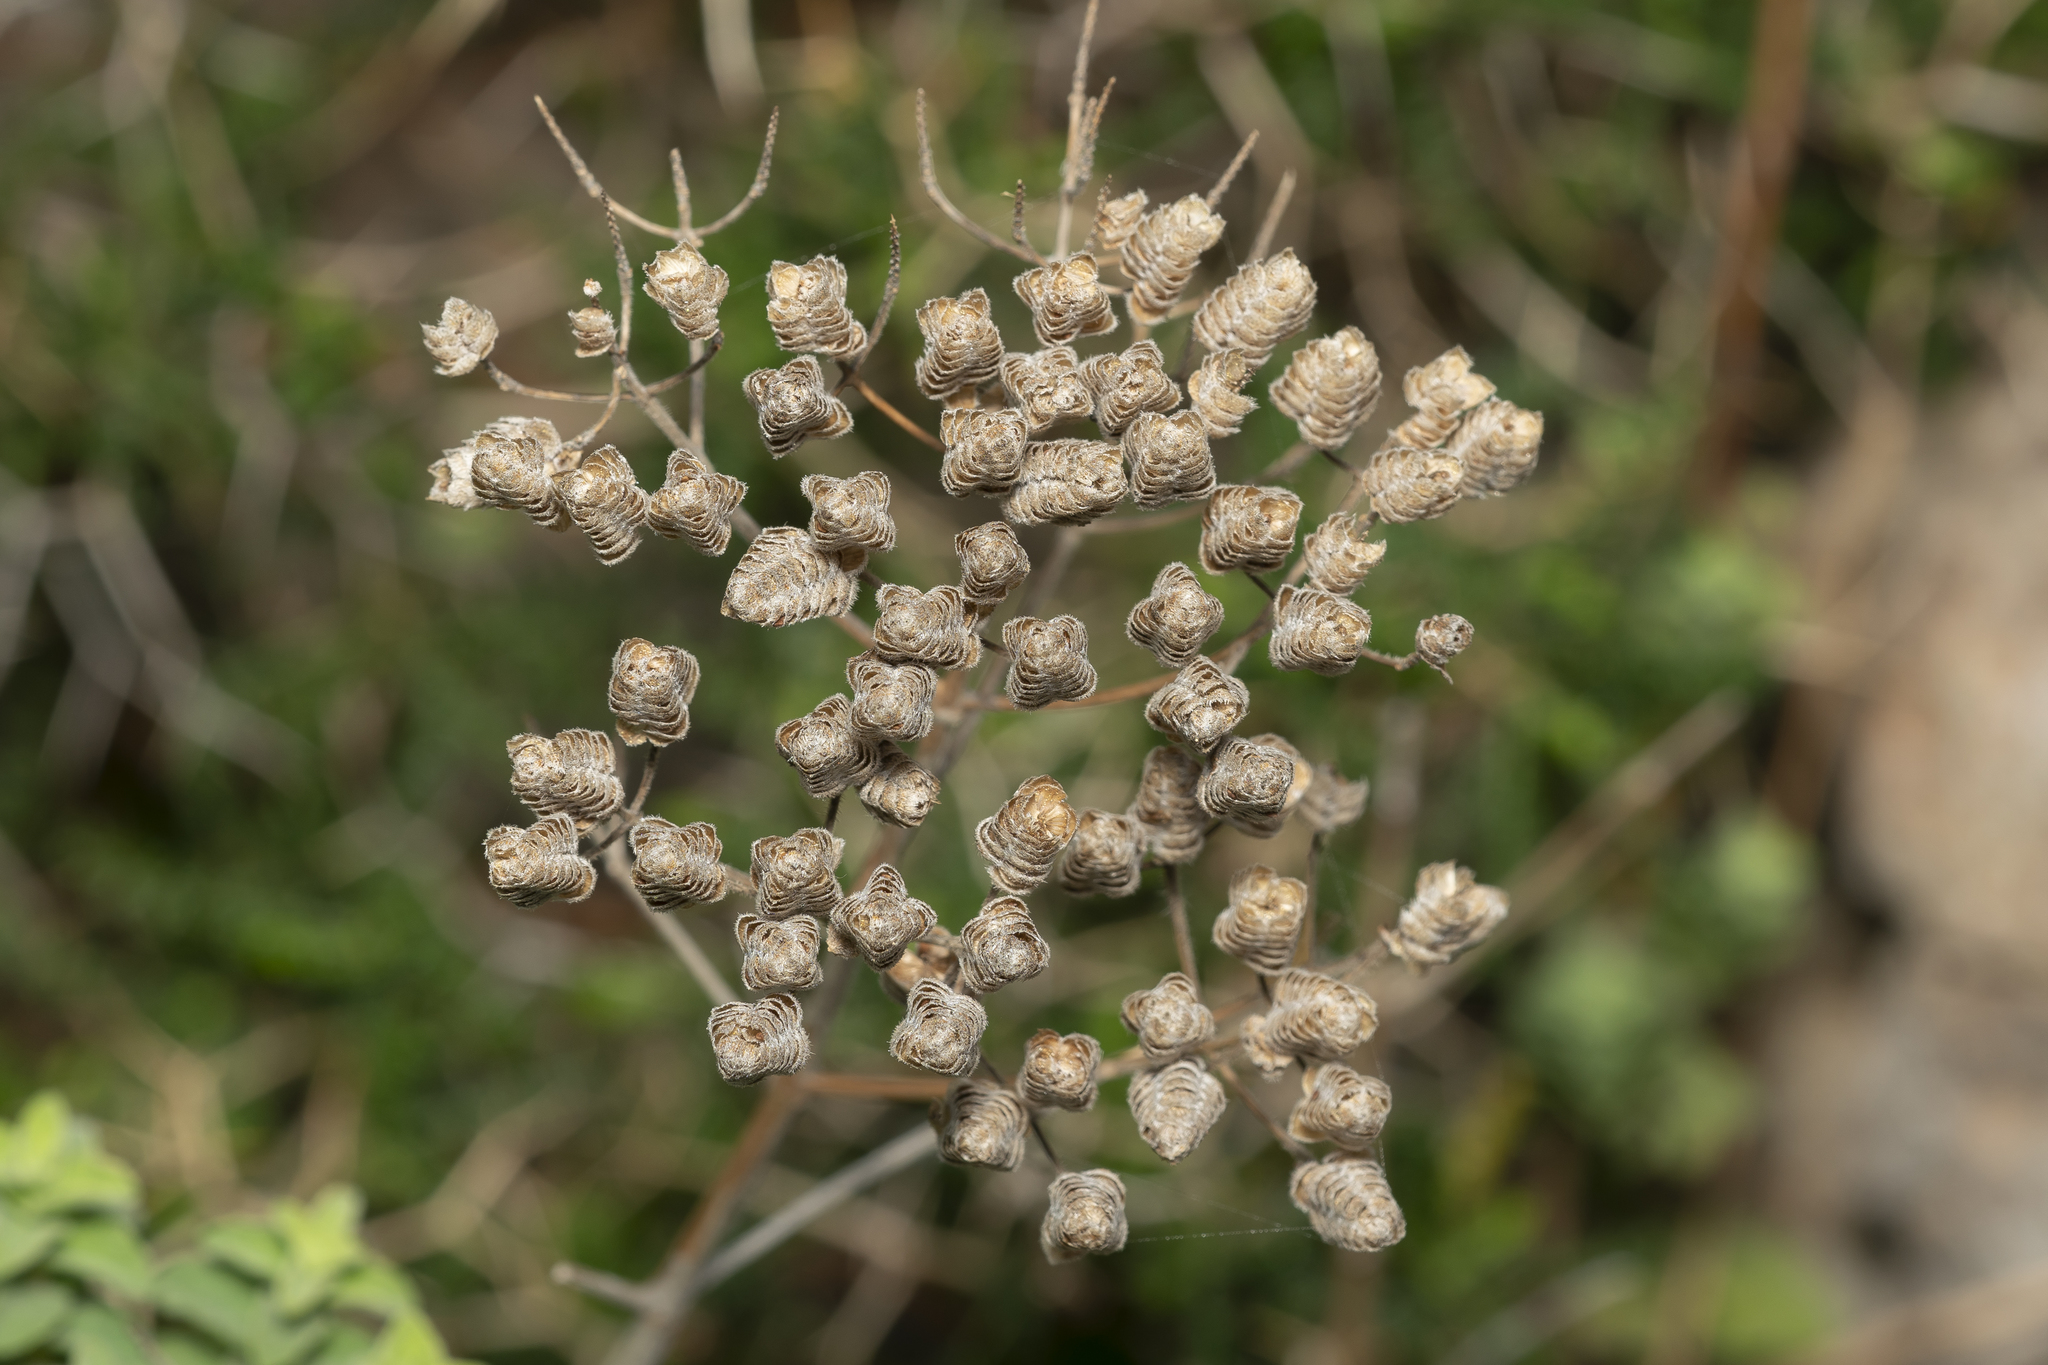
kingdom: Plantae
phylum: Tracheophyta
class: Magnoliopsida
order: Lamiales
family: Lamiaceae
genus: Origanum
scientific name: Origanum onites
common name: Turkish oregano
